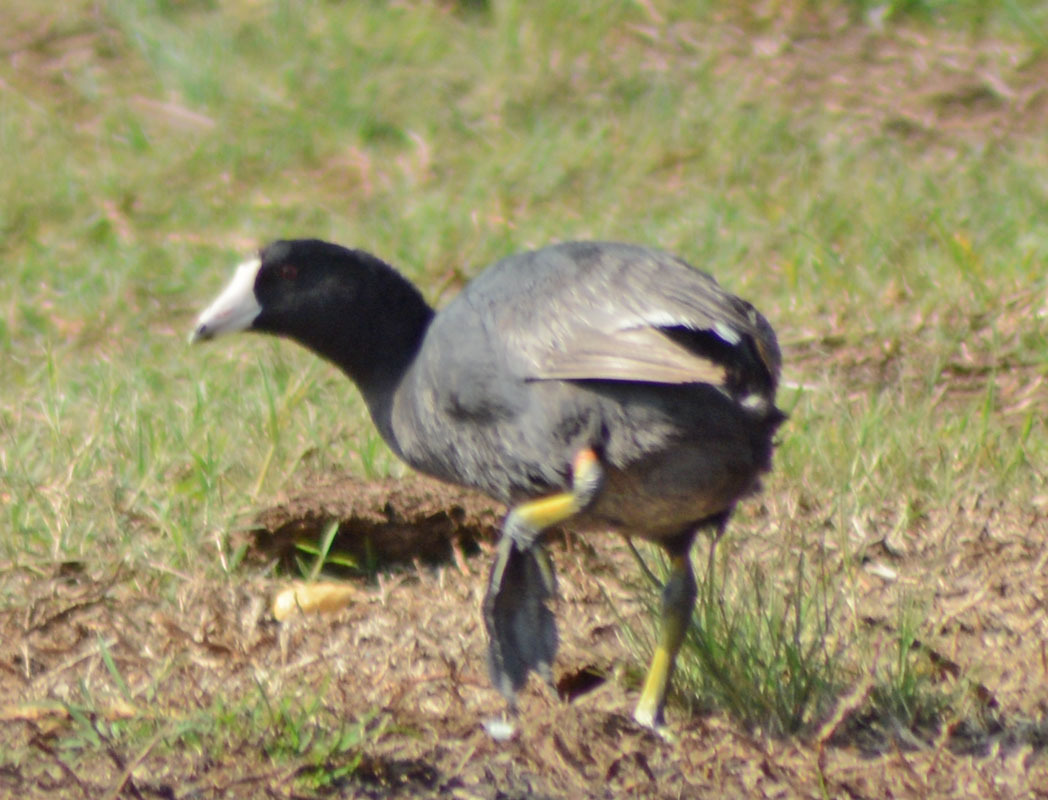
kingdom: Animalia
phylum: Chordata
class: Aves
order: Gruiformes
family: Rallidae
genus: Fulica
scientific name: Fulica americana
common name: American coot
